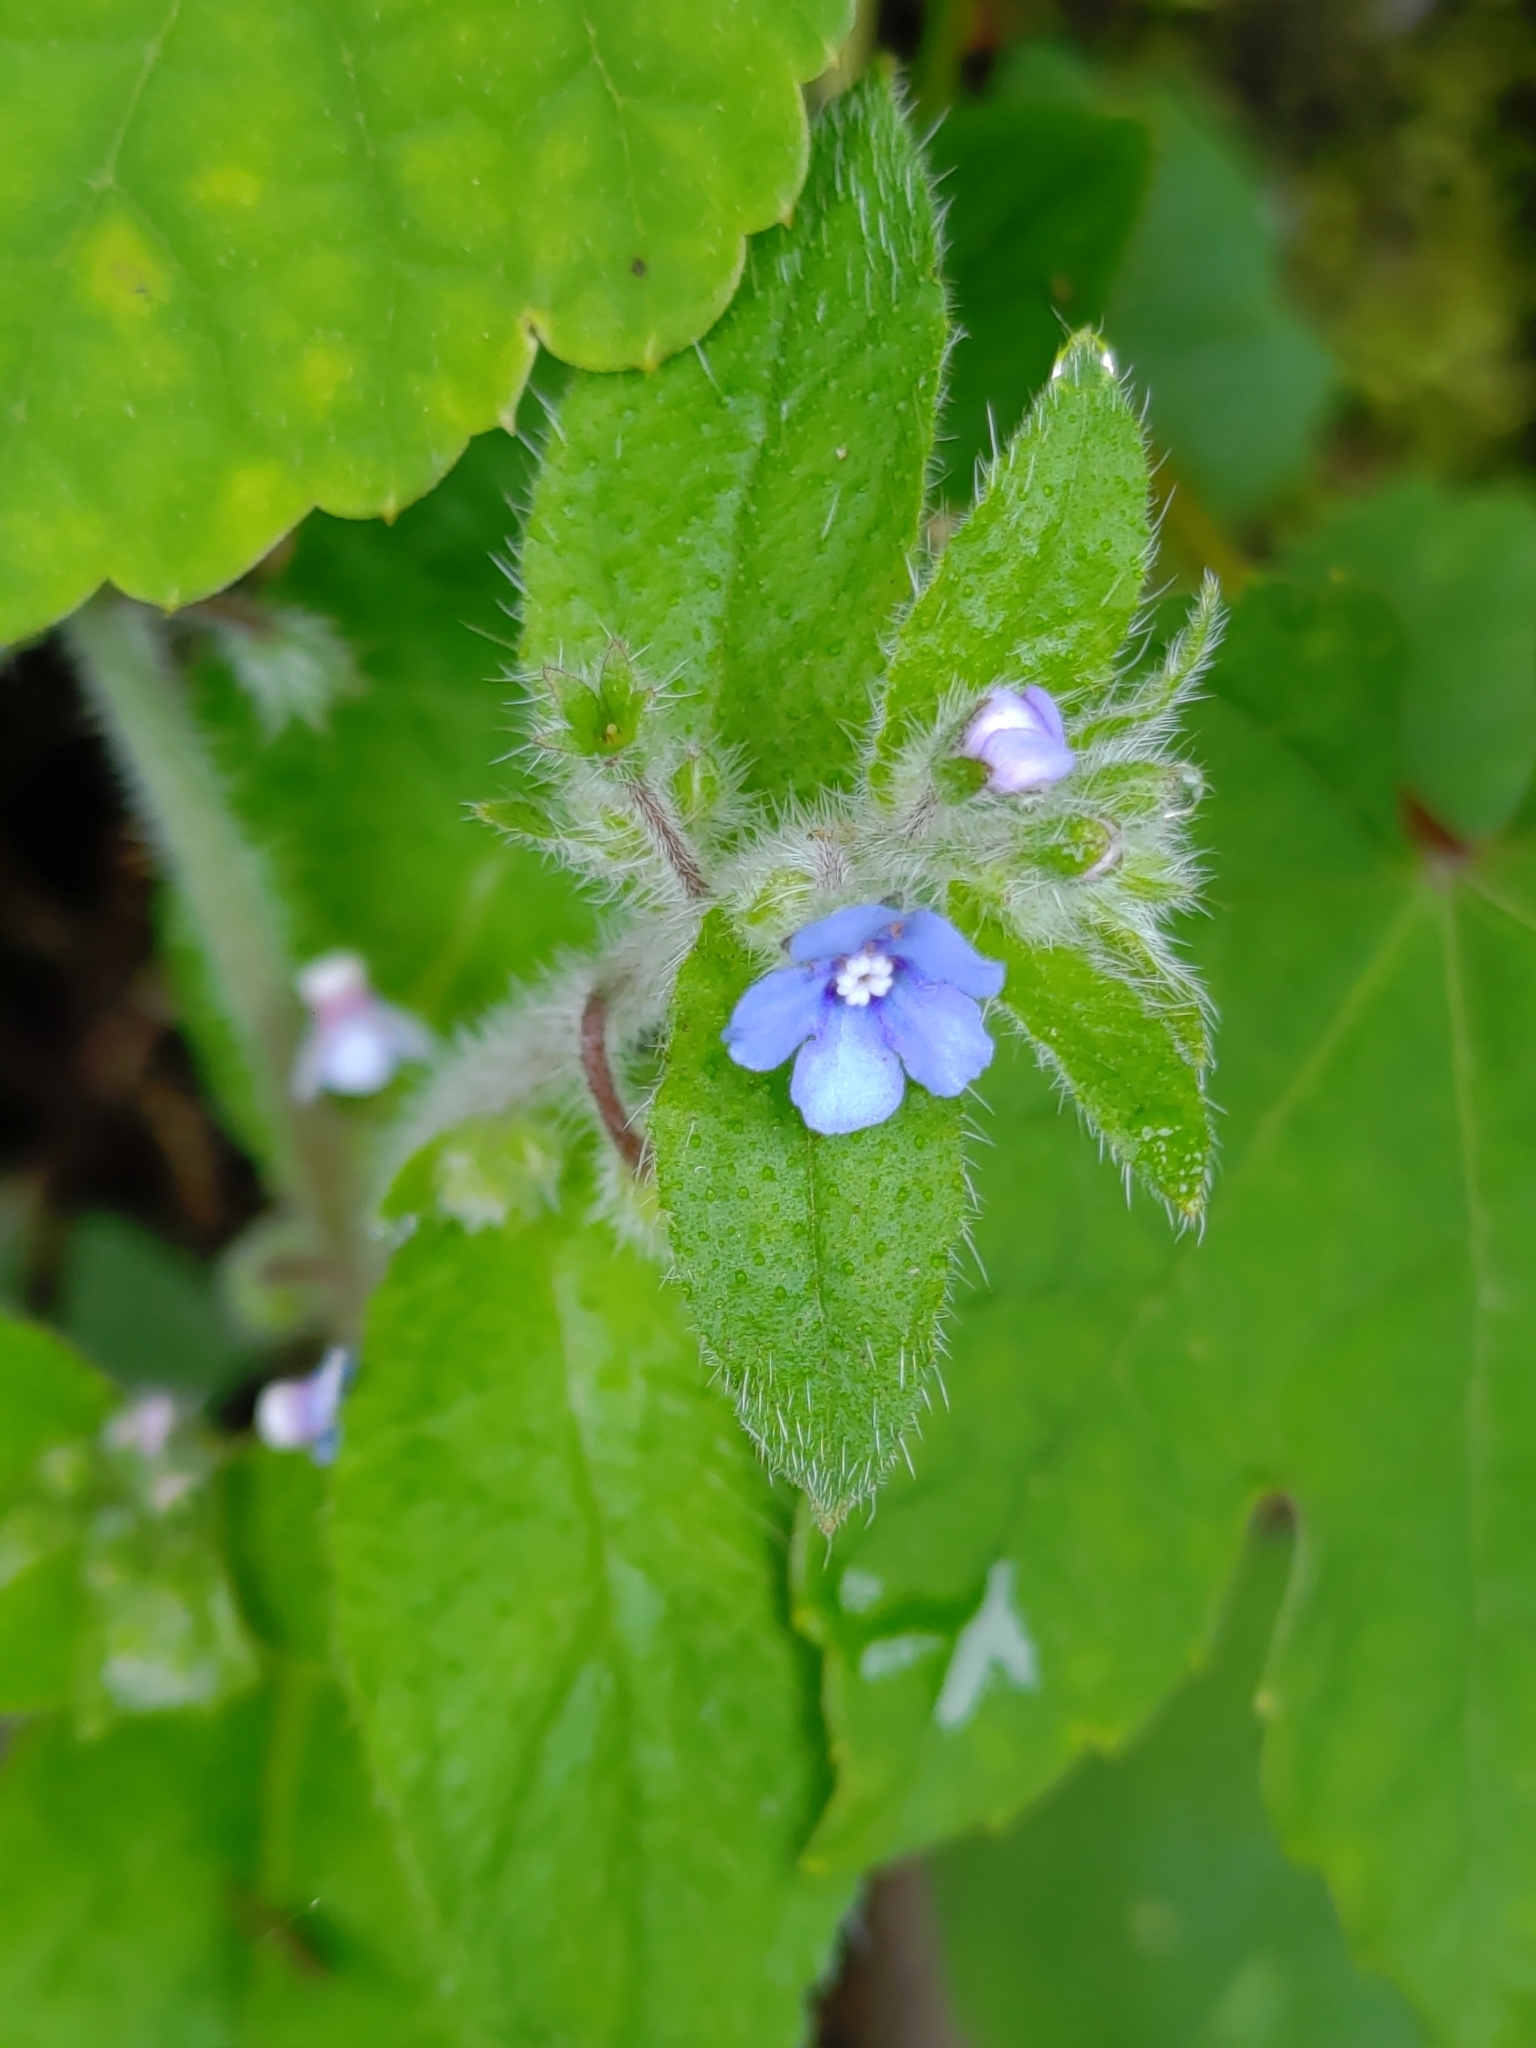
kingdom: Plantae
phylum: Tracheophyta
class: Magnoliopsida
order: Boraginales
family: Boraginaceae
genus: Thyrocarpus
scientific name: Thyrocarpus sampsonii
